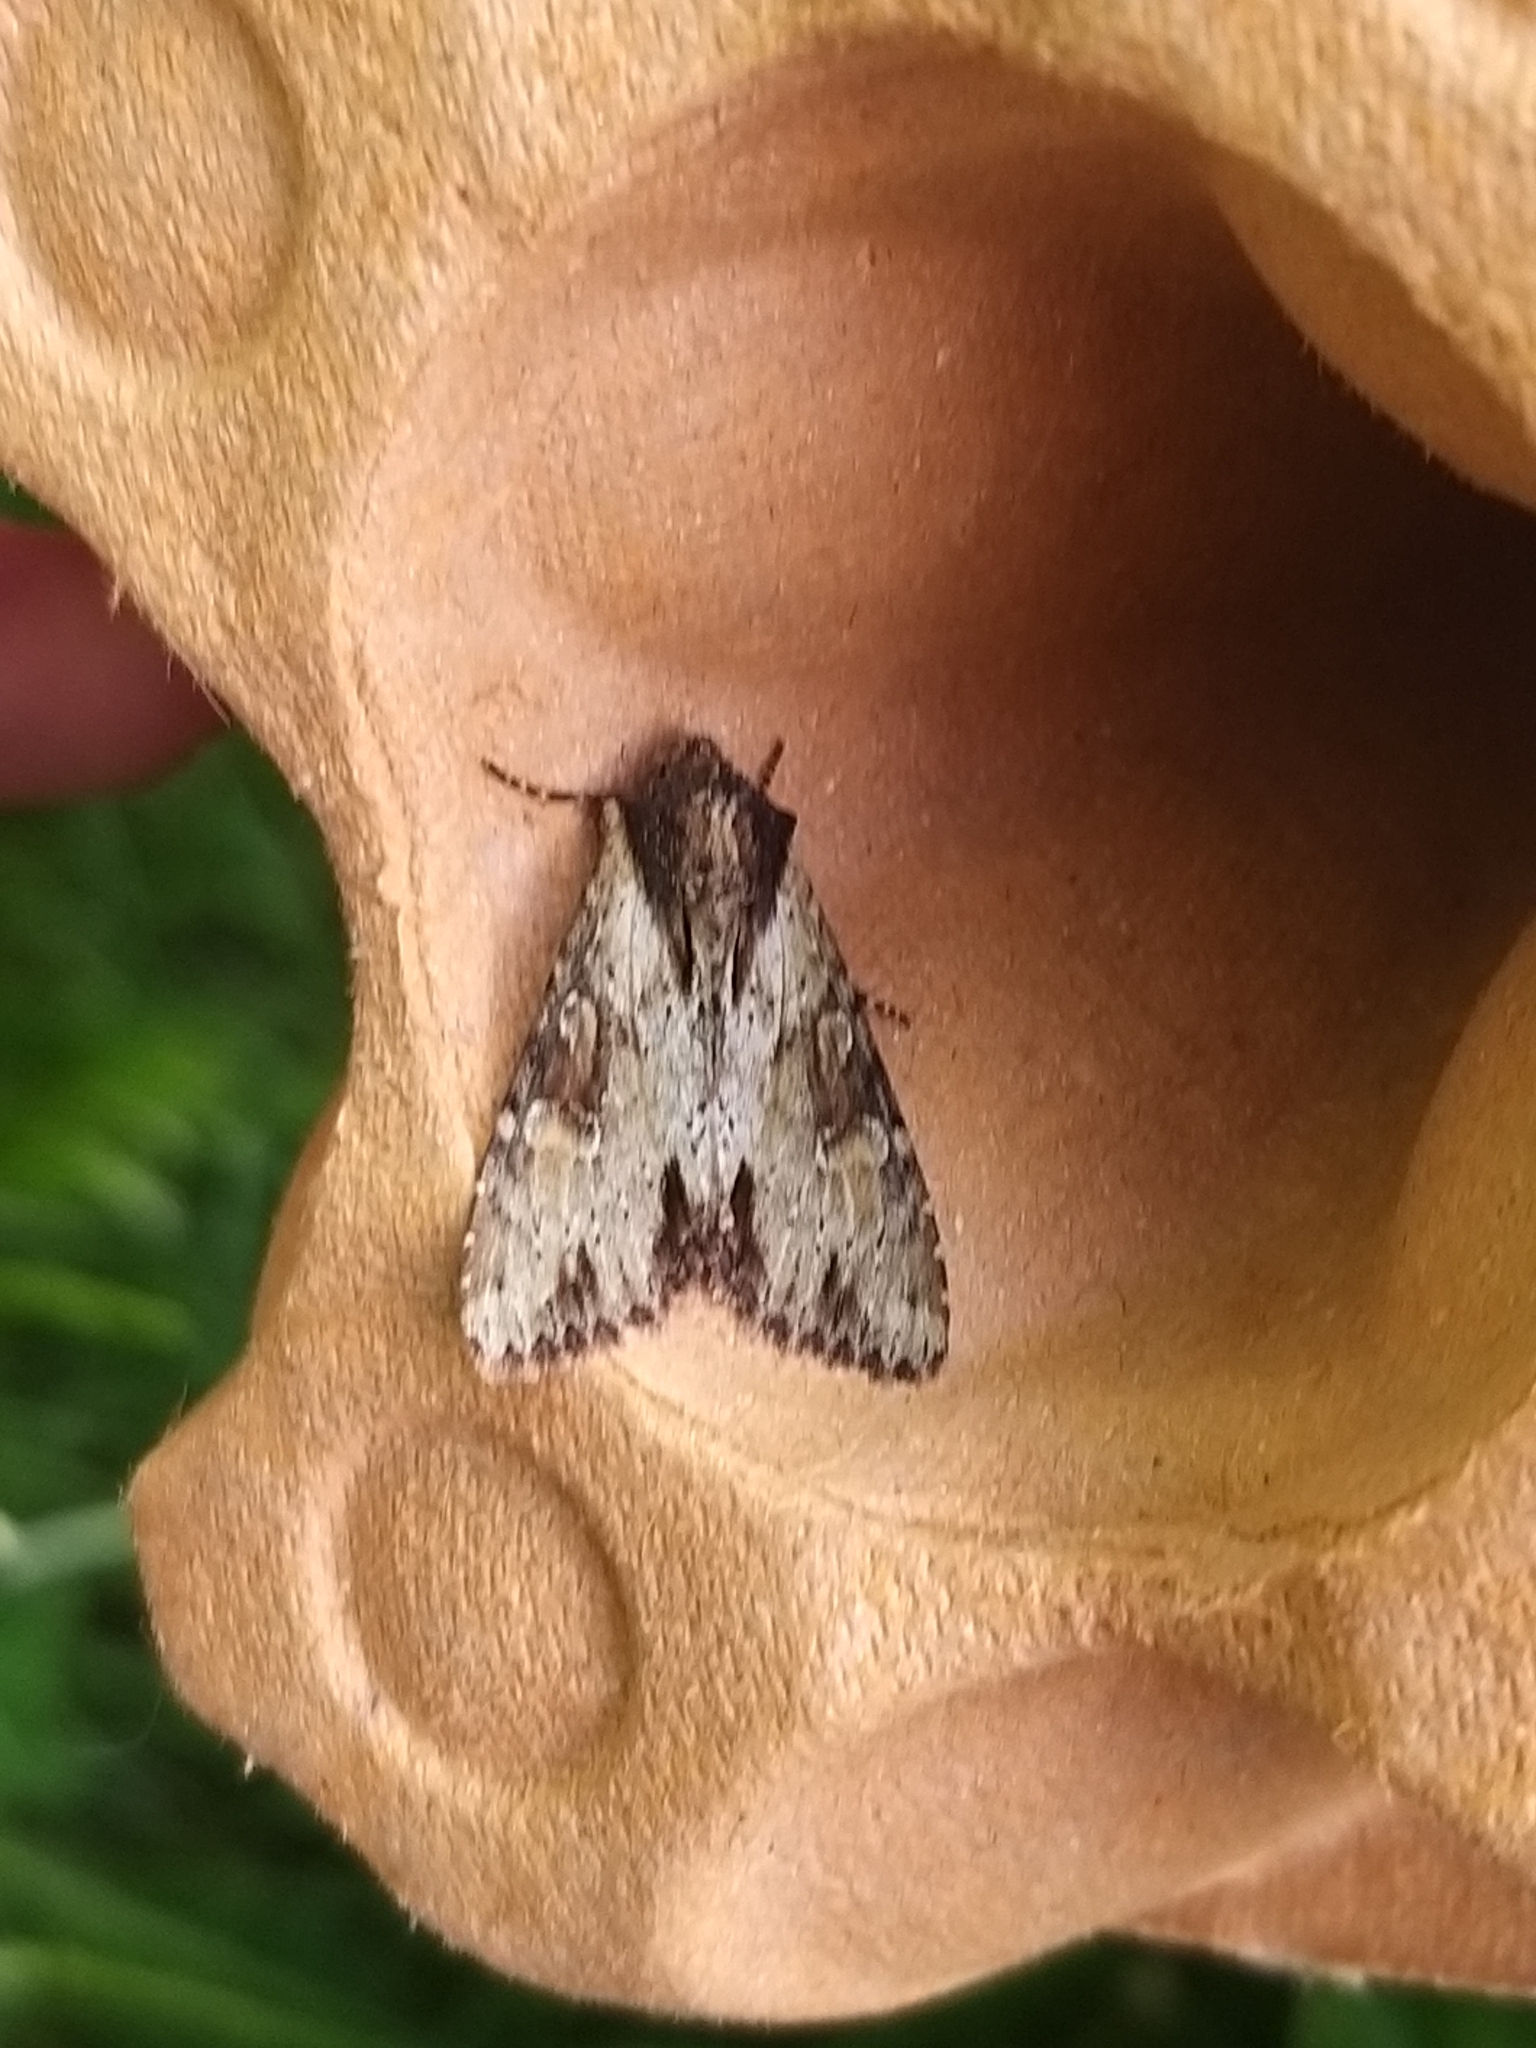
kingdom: Animalia
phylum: Arthropoda
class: Insecta
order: Lepidoptera
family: Noctuidae
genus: Apamea
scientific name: Apamea crenata
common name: Clouded-bordered brindle
